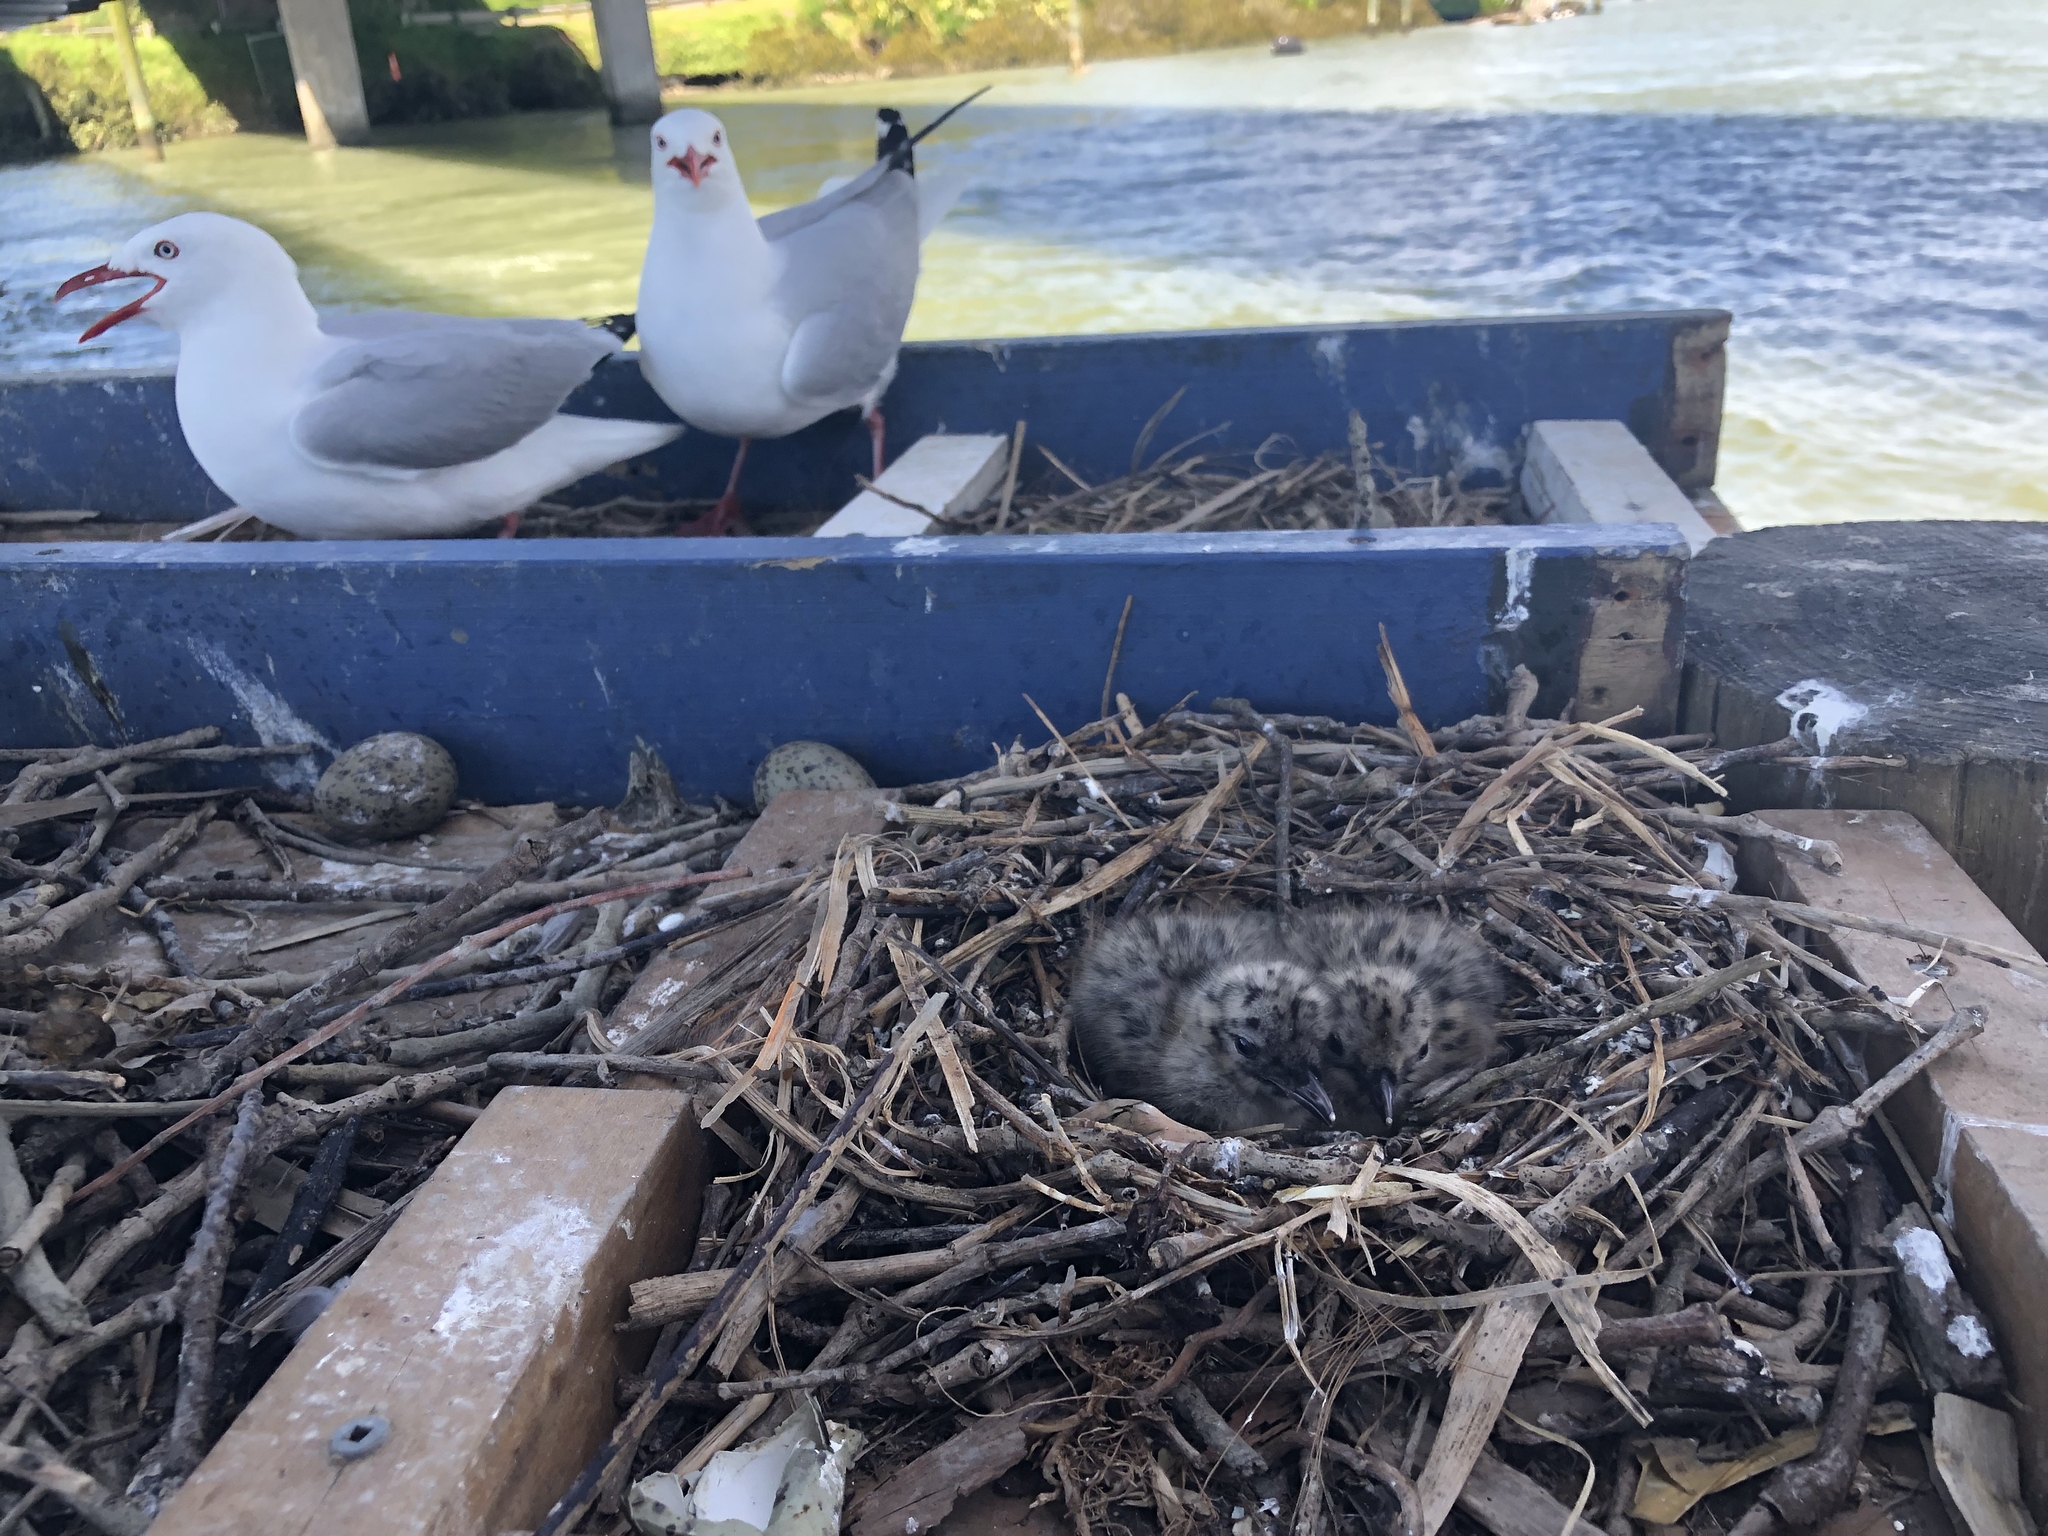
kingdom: Animalia
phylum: Chordata
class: Aves
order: Charadriiformes
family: Laridae
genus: Chroicocephalus
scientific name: Chroicocephalus novaehollandiae
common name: Silver gull
